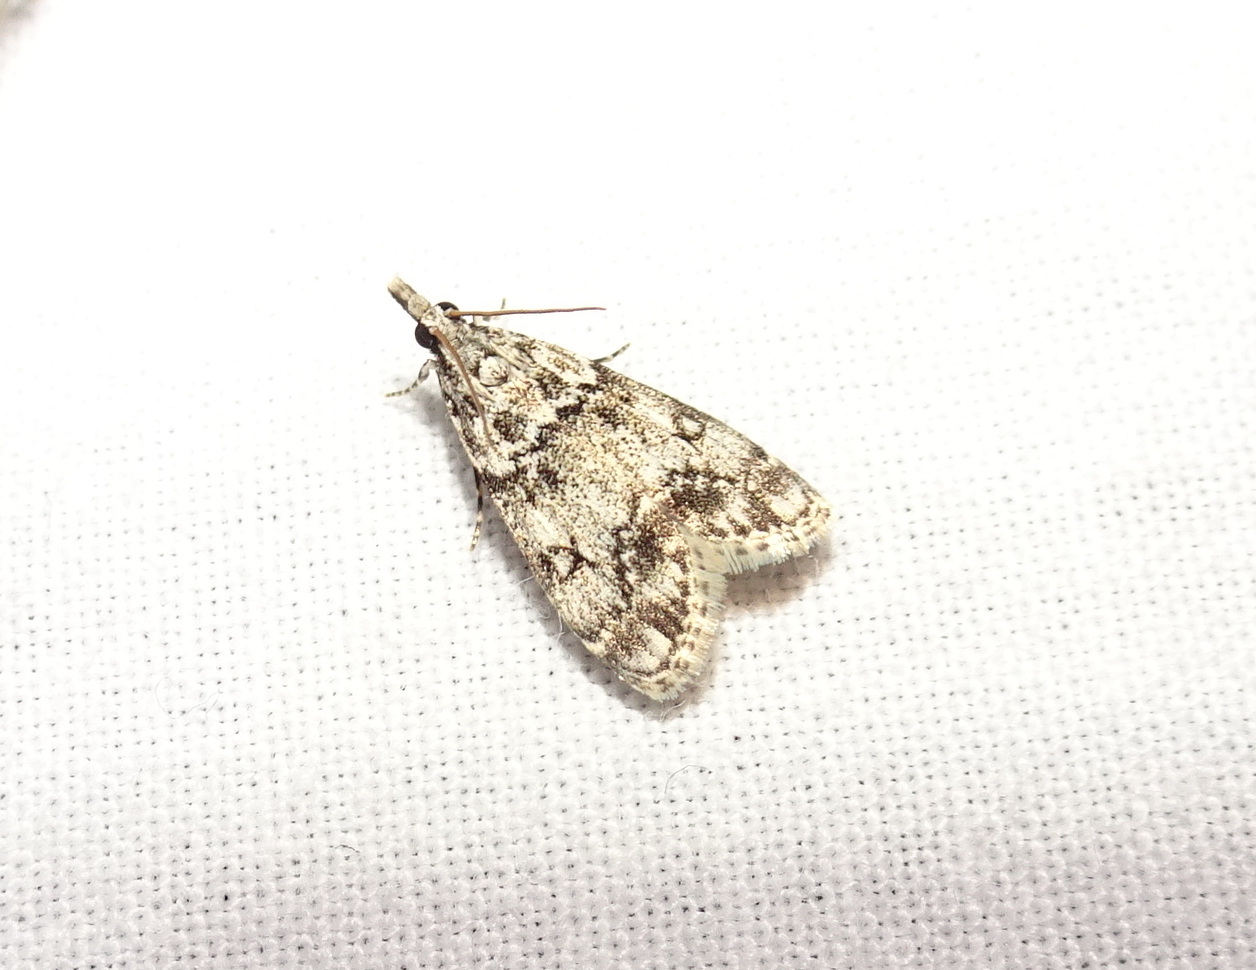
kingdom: Animalia
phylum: Arthropoda
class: Insecta
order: Lepidoptera
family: Crambidae
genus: Eudonia
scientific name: Eudonia lacustrata
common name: Little grey
